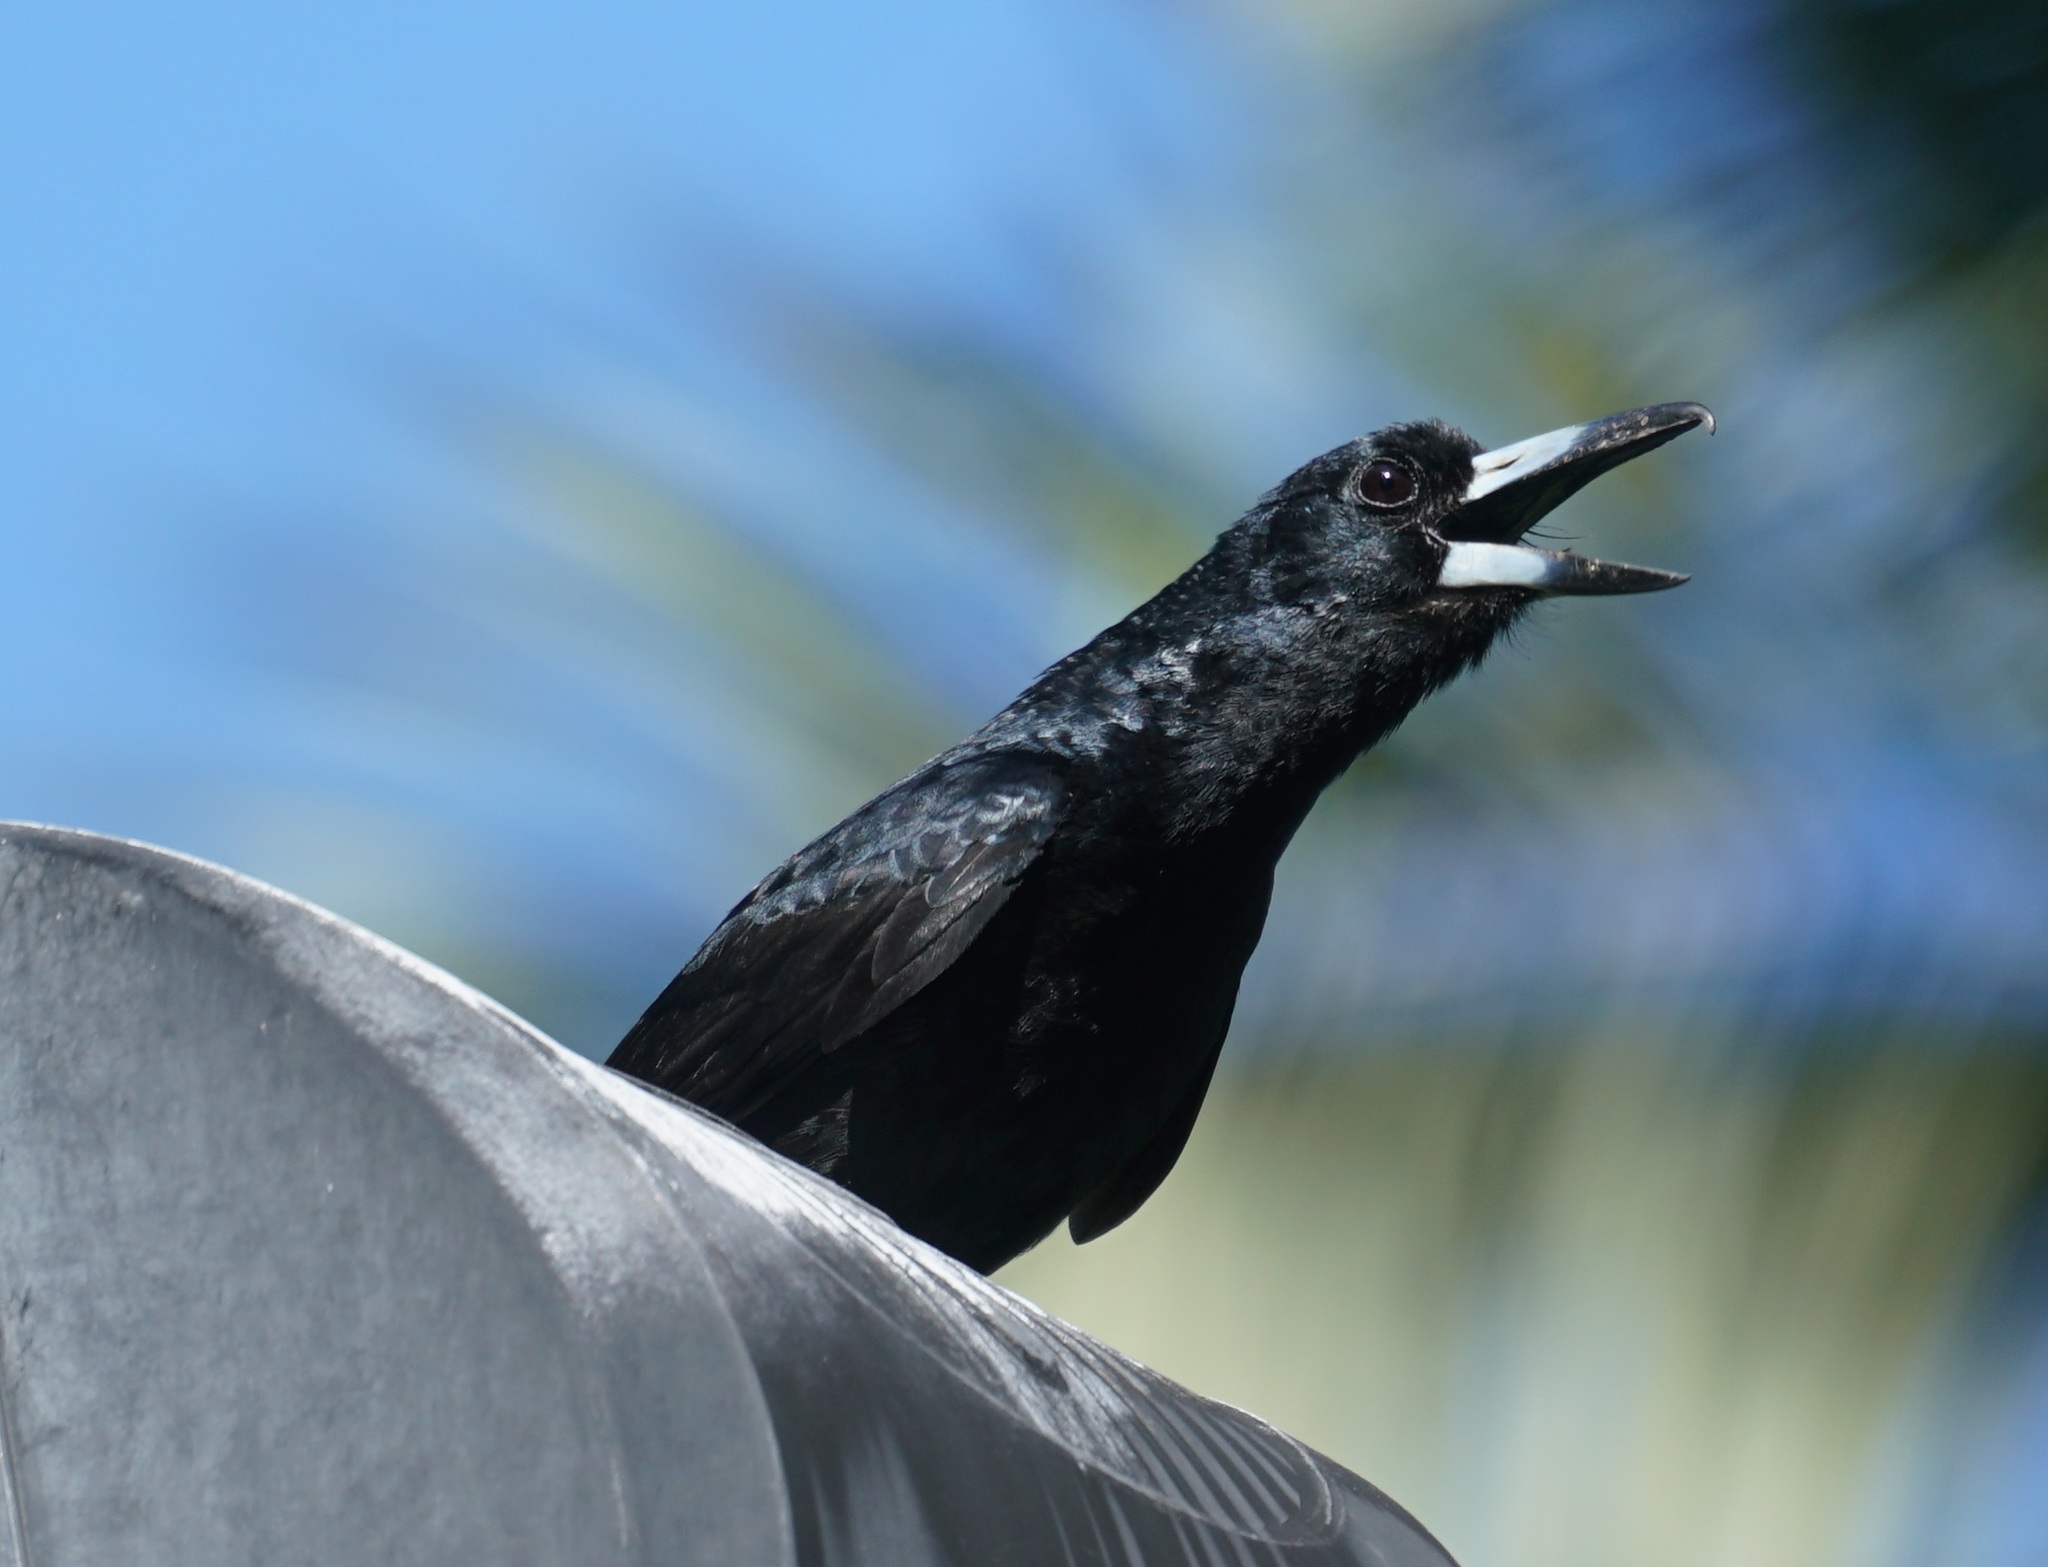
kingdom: Animalia
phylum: Chordata
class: Aves
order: Passeriformes
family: Artamidae
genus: Melloria
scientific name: Melloria quoyi
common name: Black butcherbird
